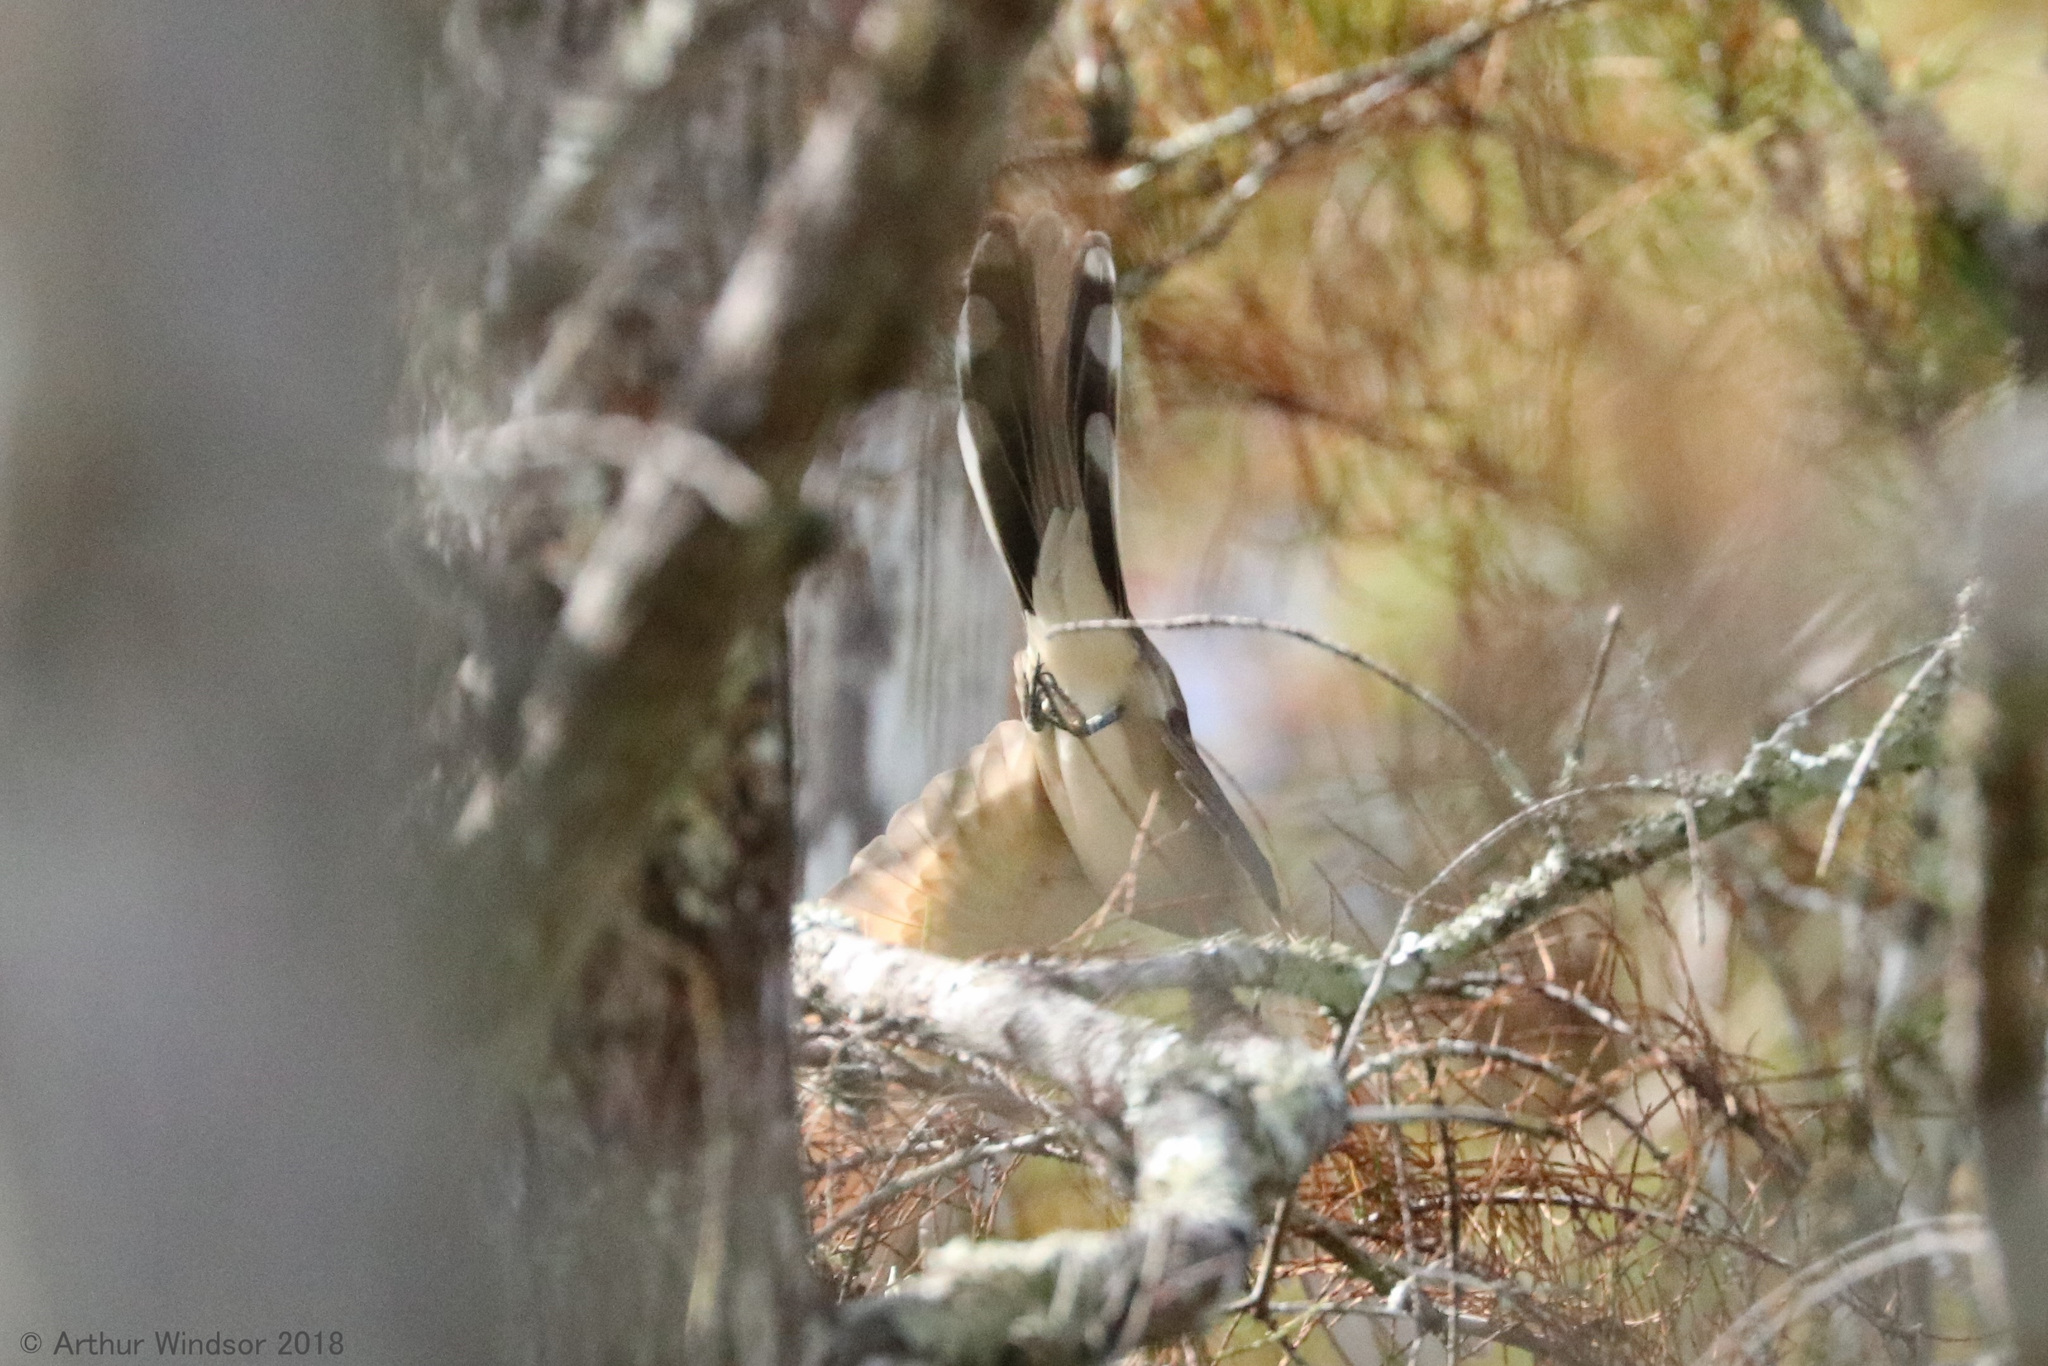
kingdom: Animalia
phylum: Chordata
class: Aves
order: Cuculiformes
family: Cuculidae
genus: Coccyzus
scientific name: Coccyzus americanus
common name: Yellow-billed cuckoo
